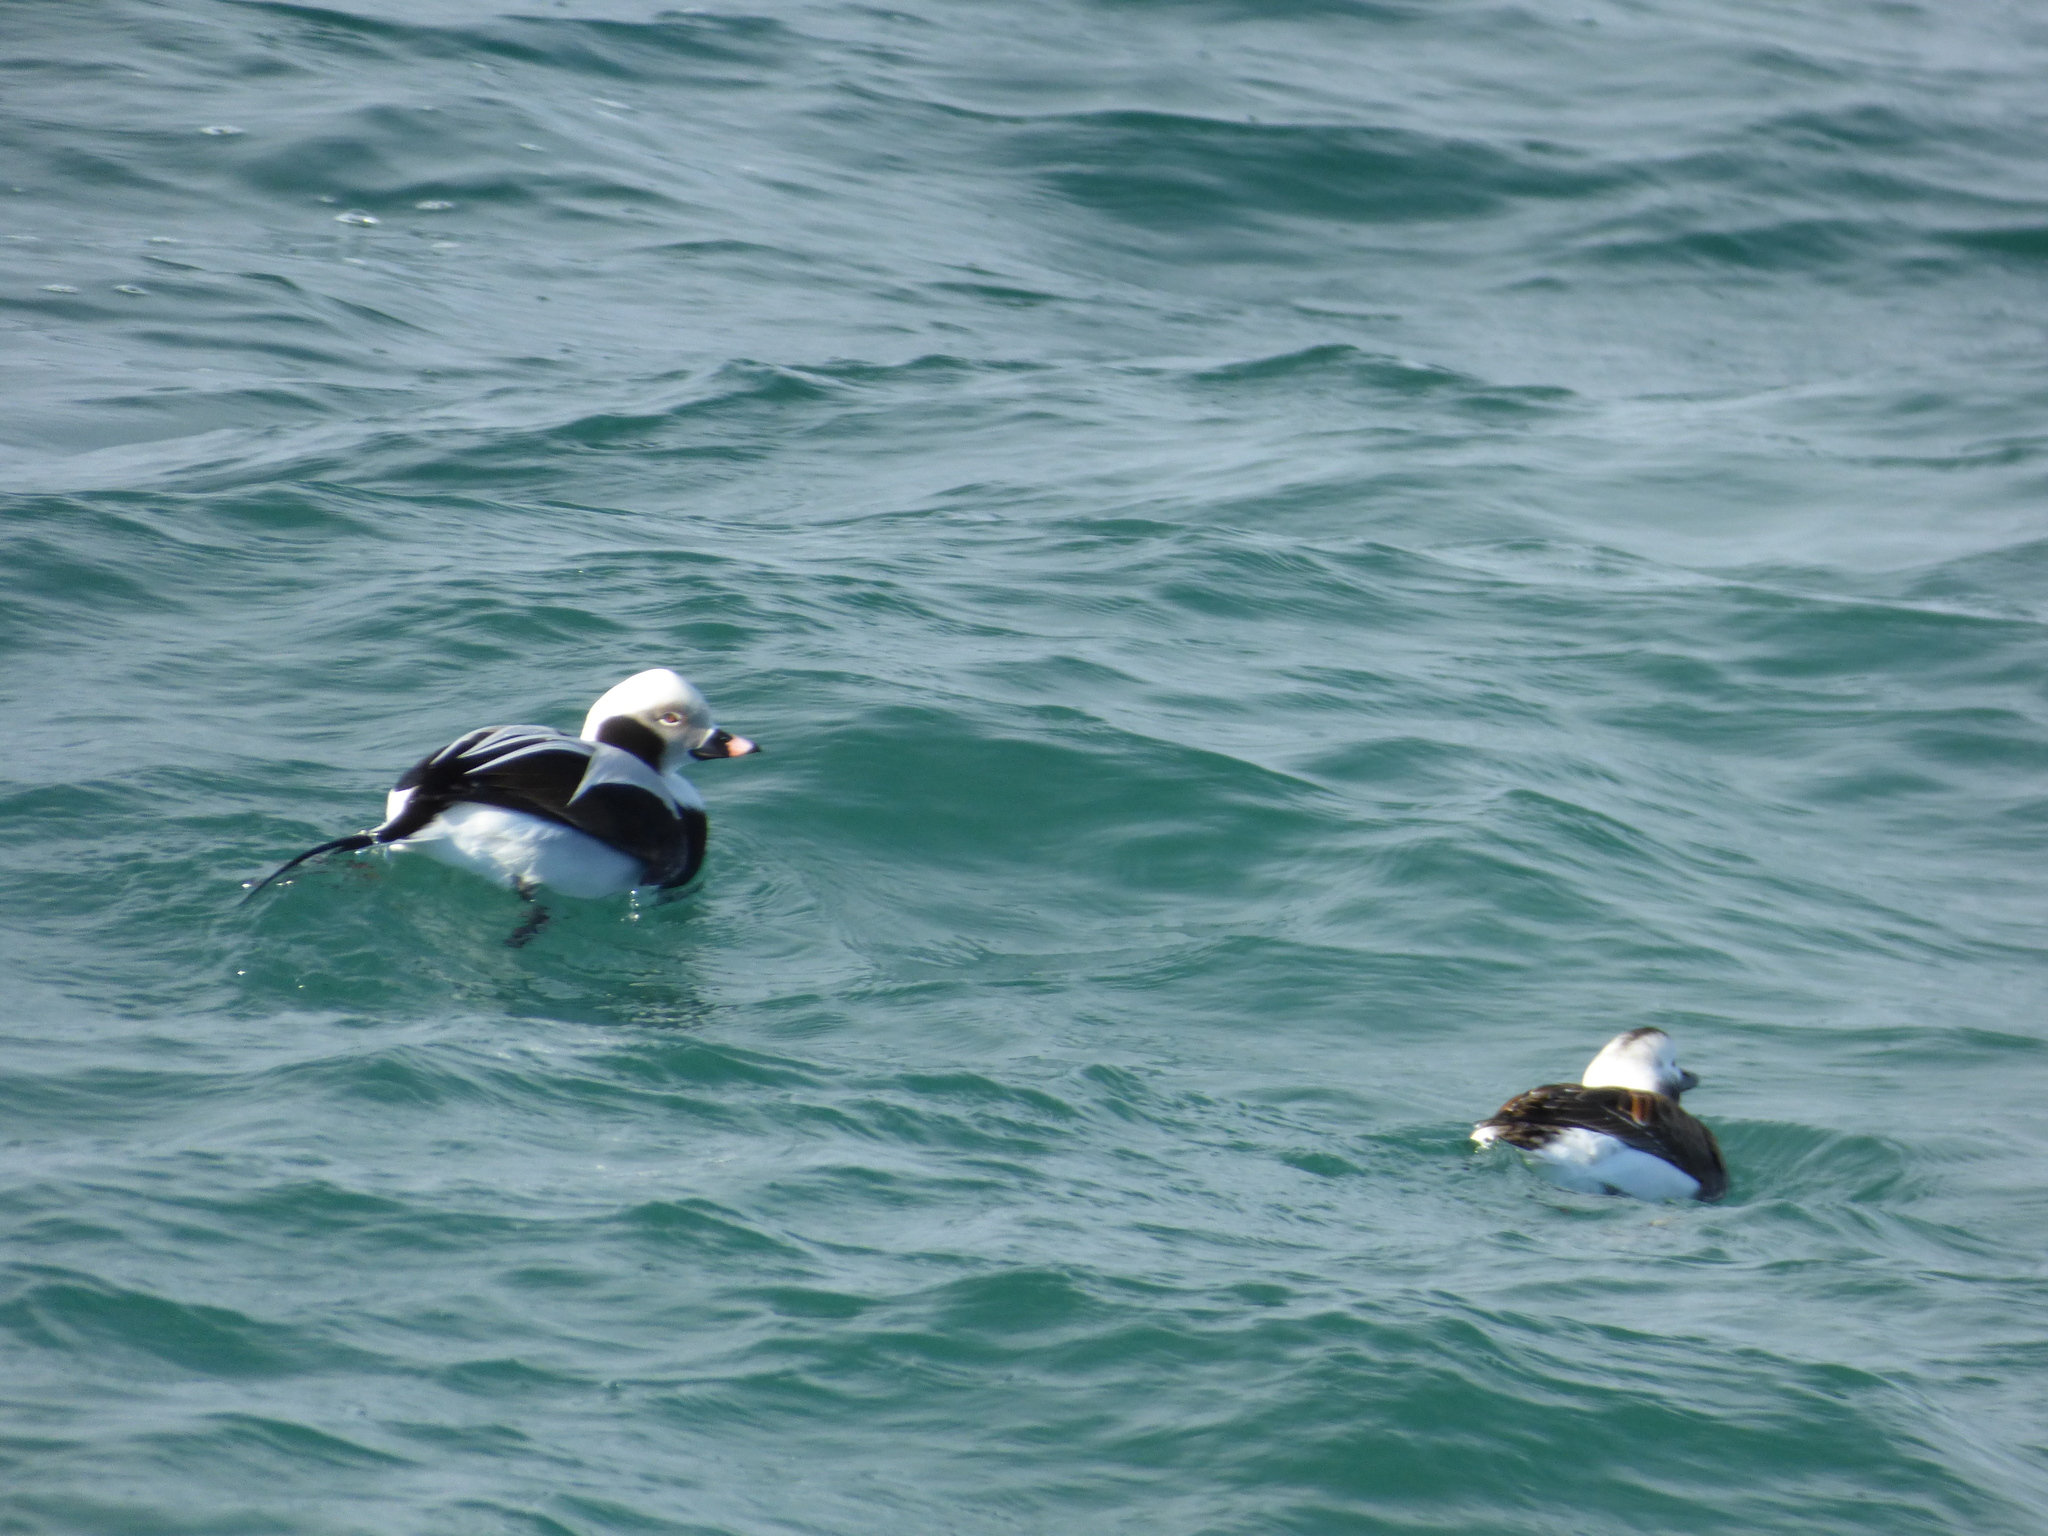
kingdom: Animalia
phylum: Chordata
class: Aves
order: Anseriformes
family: Anatidae
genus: Clangula
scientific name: Clangula hyemalis
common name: Long-tailed duck
